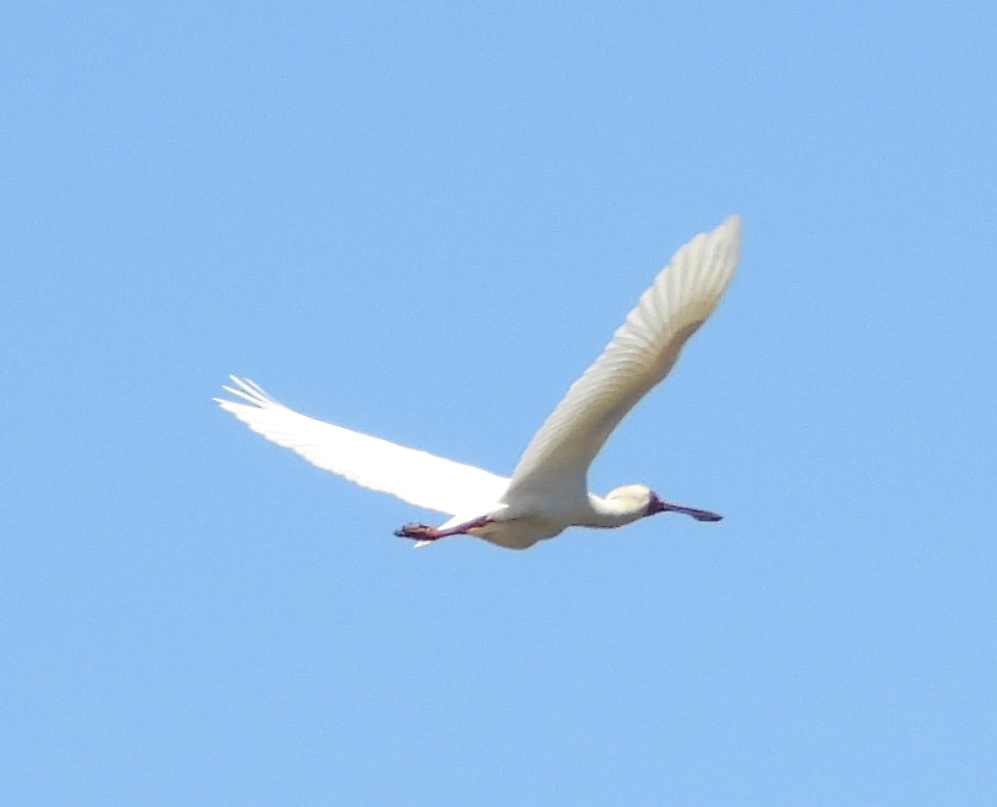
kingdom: Animalia
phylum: Chordata
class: Aves
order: Pelecaniformes
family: Threskiornithidae
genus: Platalea
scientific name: Platalea alba
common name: African spoonbill
